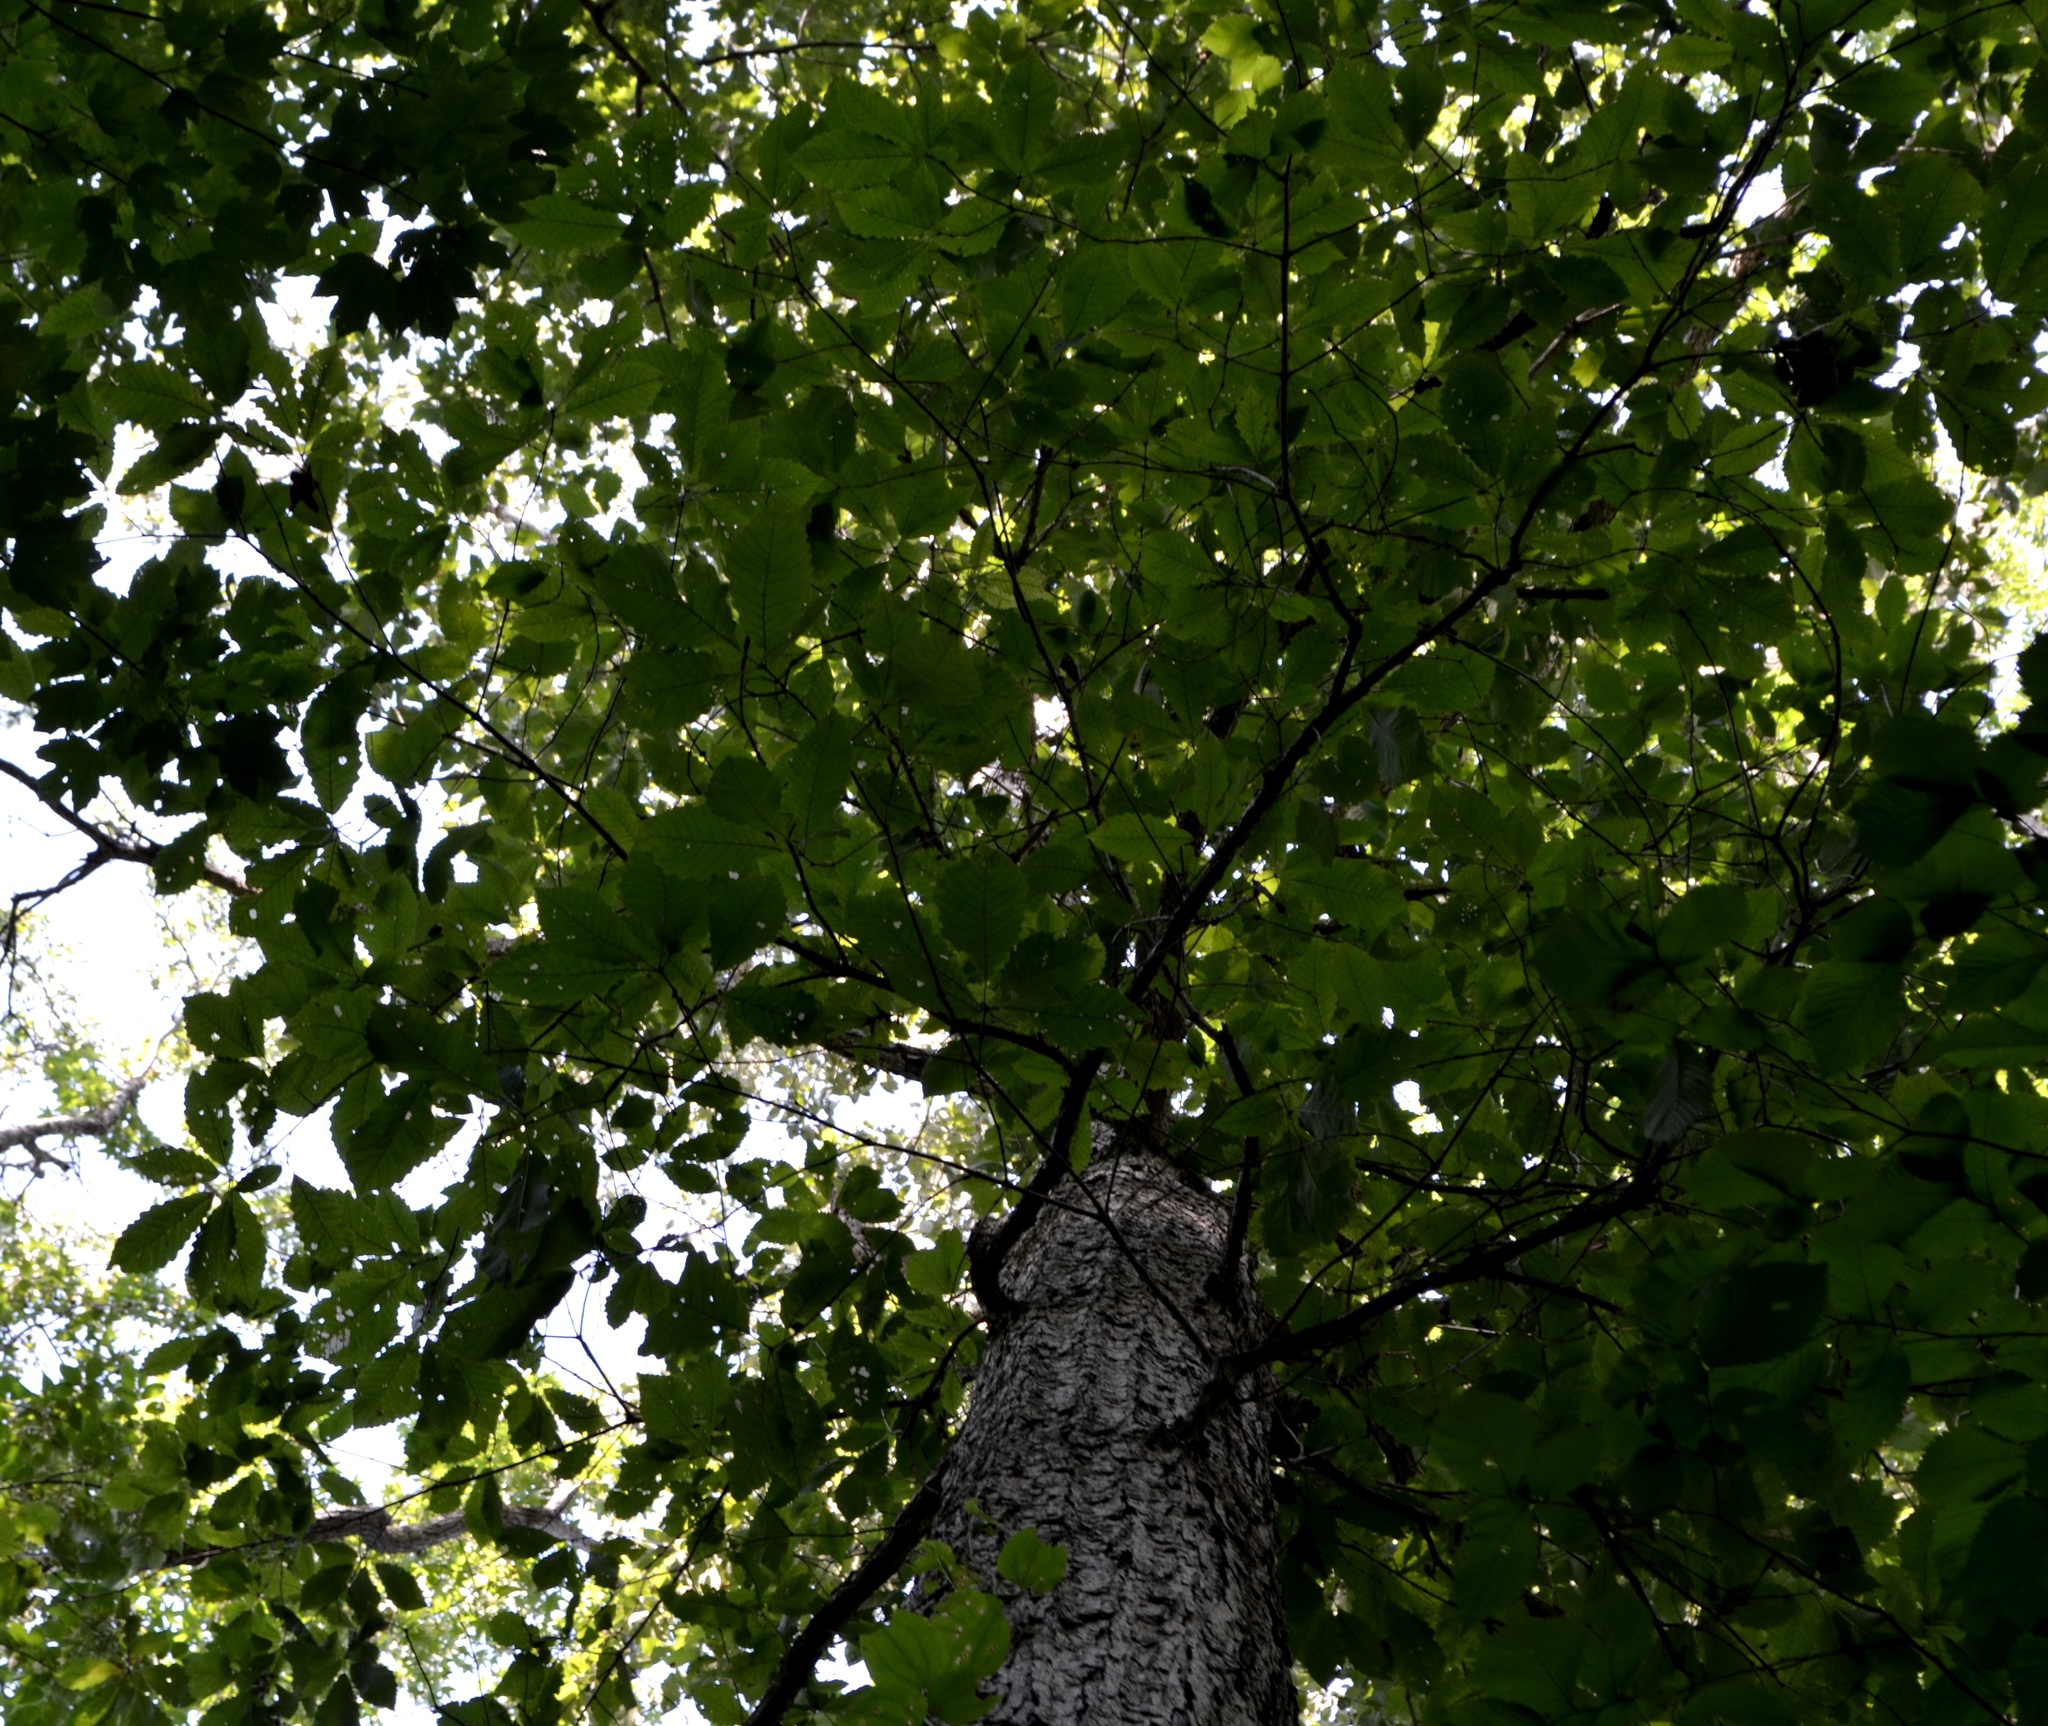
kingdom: Plantae
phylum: Tracheophyta
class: Magnoliopsida
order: Fagales
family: Fagaceae
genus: Quercus
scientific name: Quercus michauxii
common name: Swamp chestnut oak
